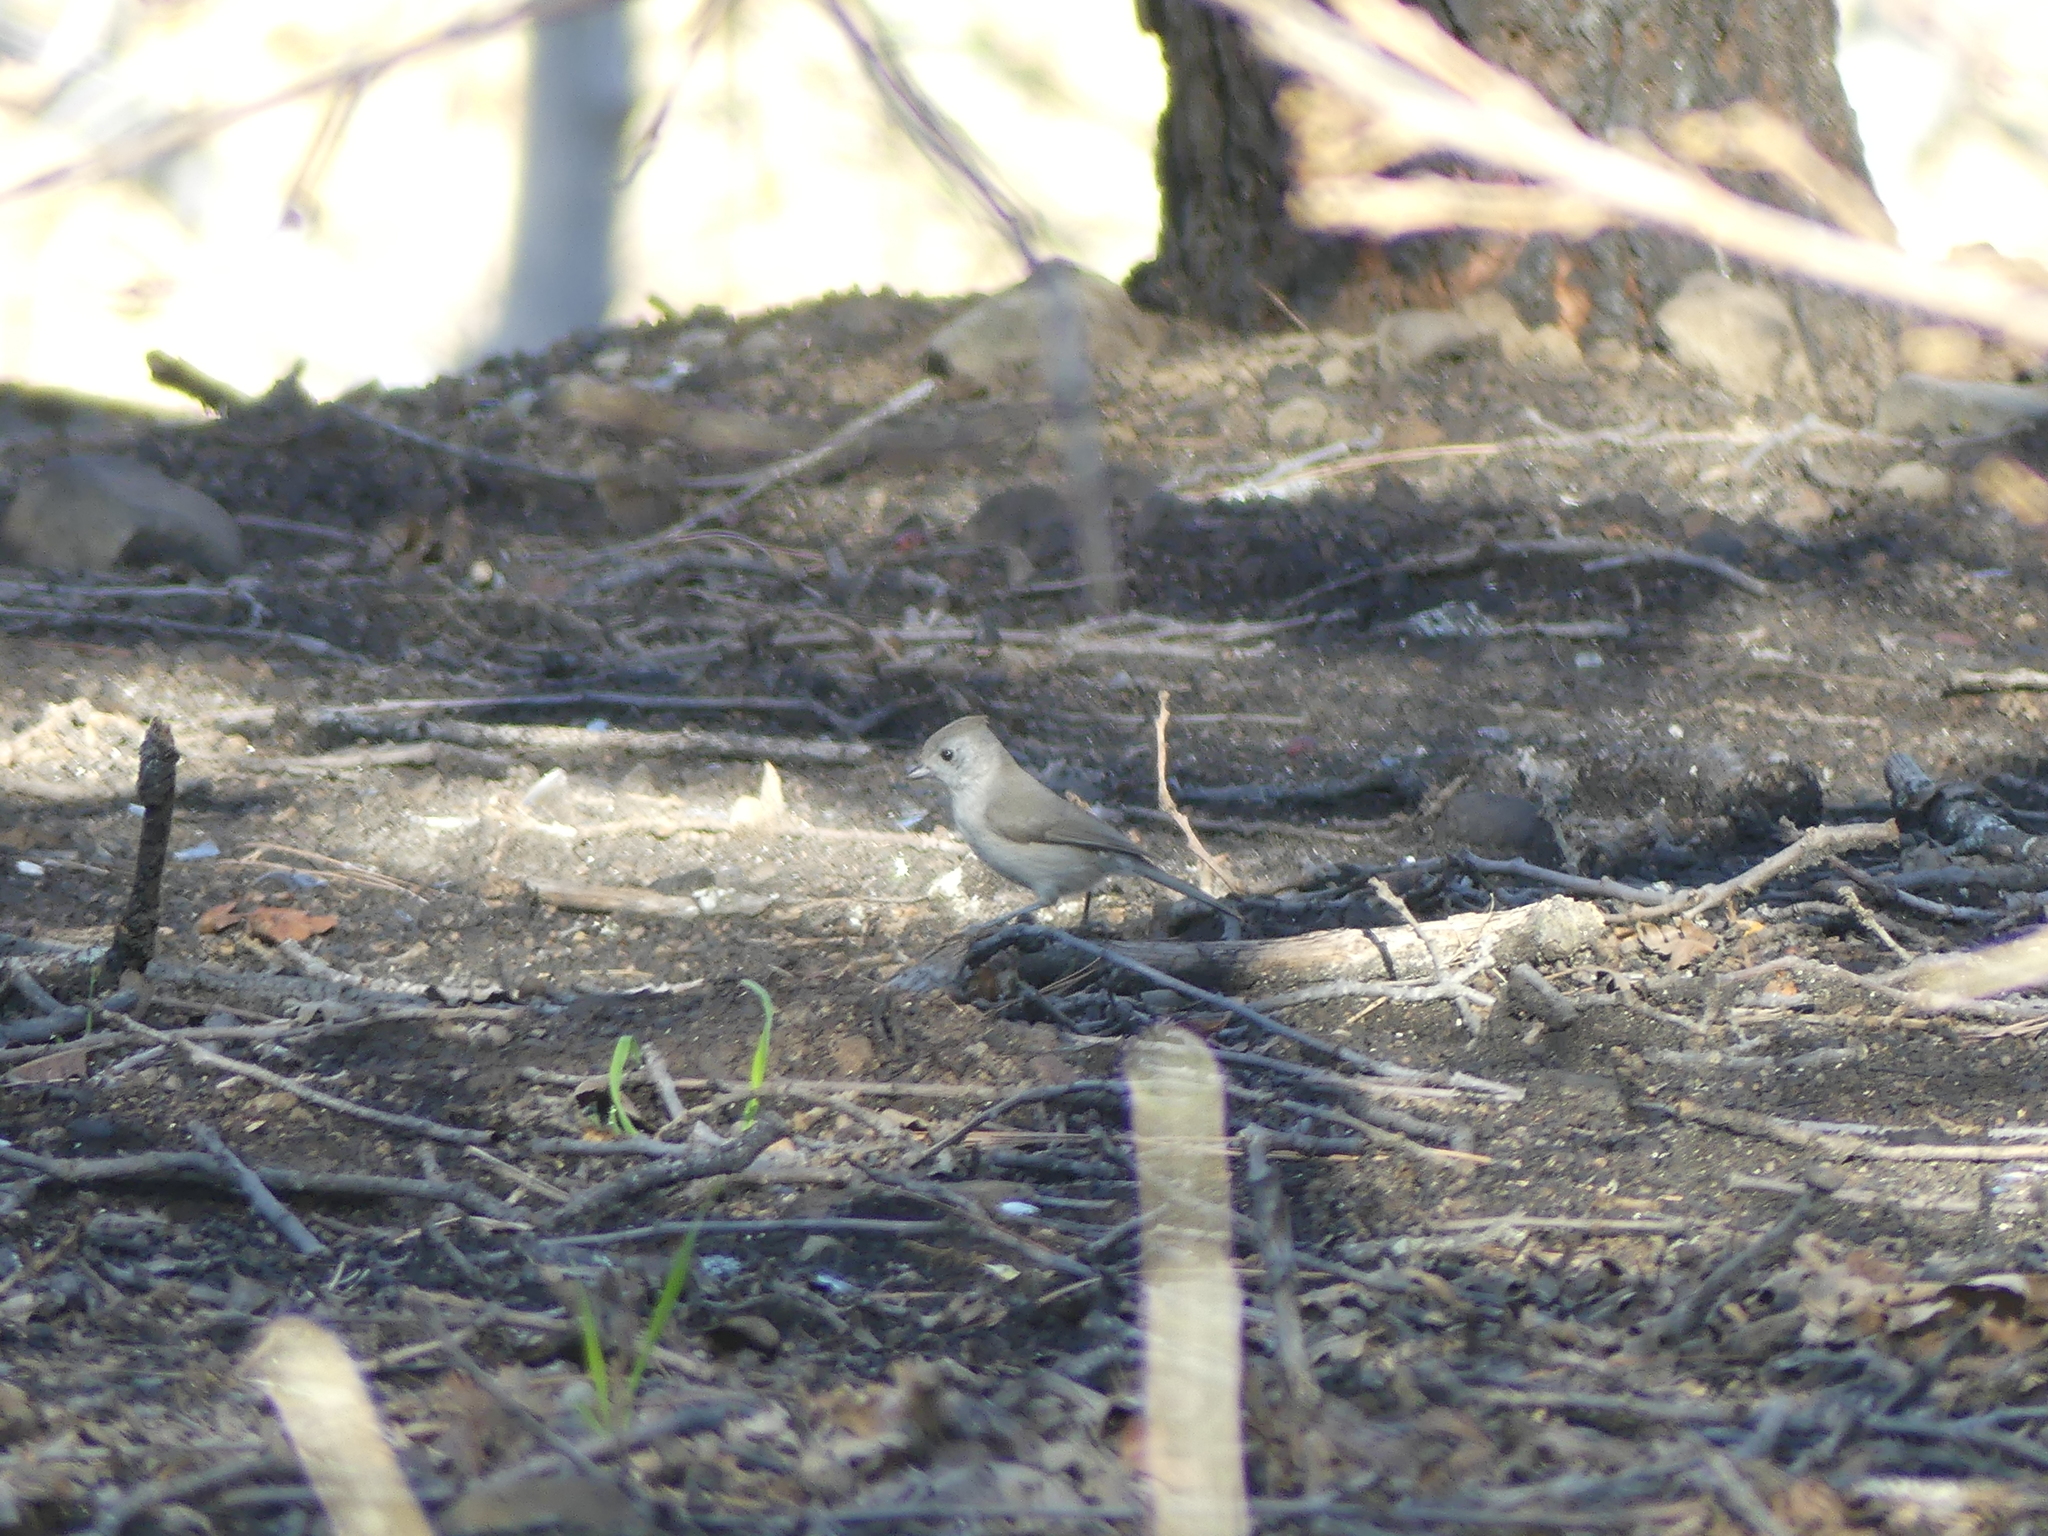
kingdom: Animalia
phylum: Chordata
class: Aves
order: Passeriformes
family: Paridae
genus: Baeolophus
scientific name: Baeolophus inornatus
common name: Oak titmouse
